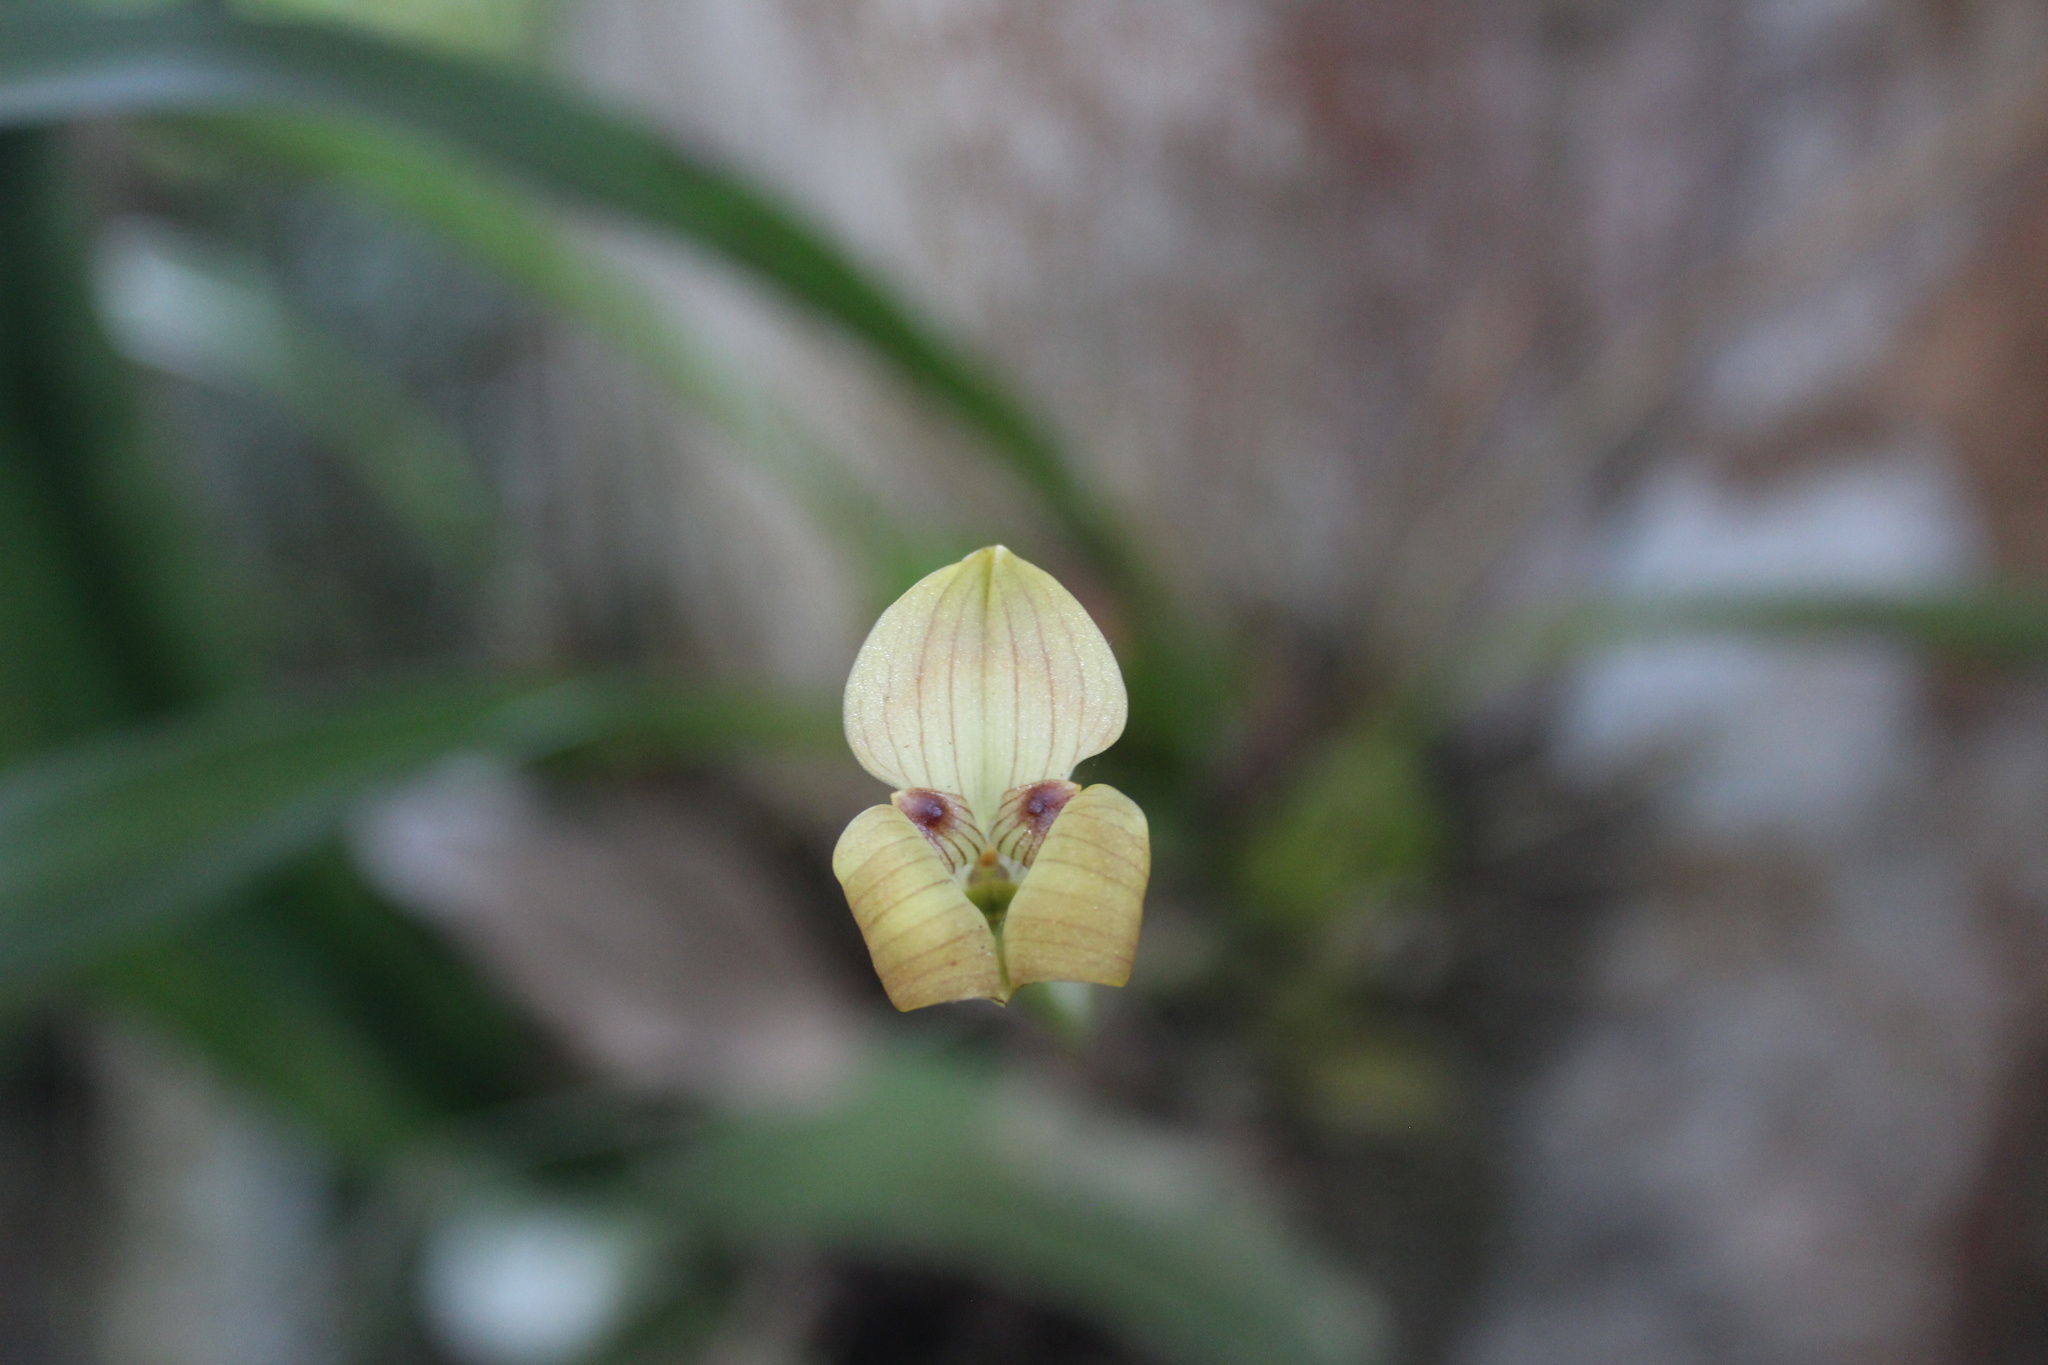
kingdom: Plantae
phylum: Tracheophyta
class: Liliopsida
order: Asparagales
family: Orchidaceae
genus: Maxillaria
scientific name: Maxillaria egertoniana
